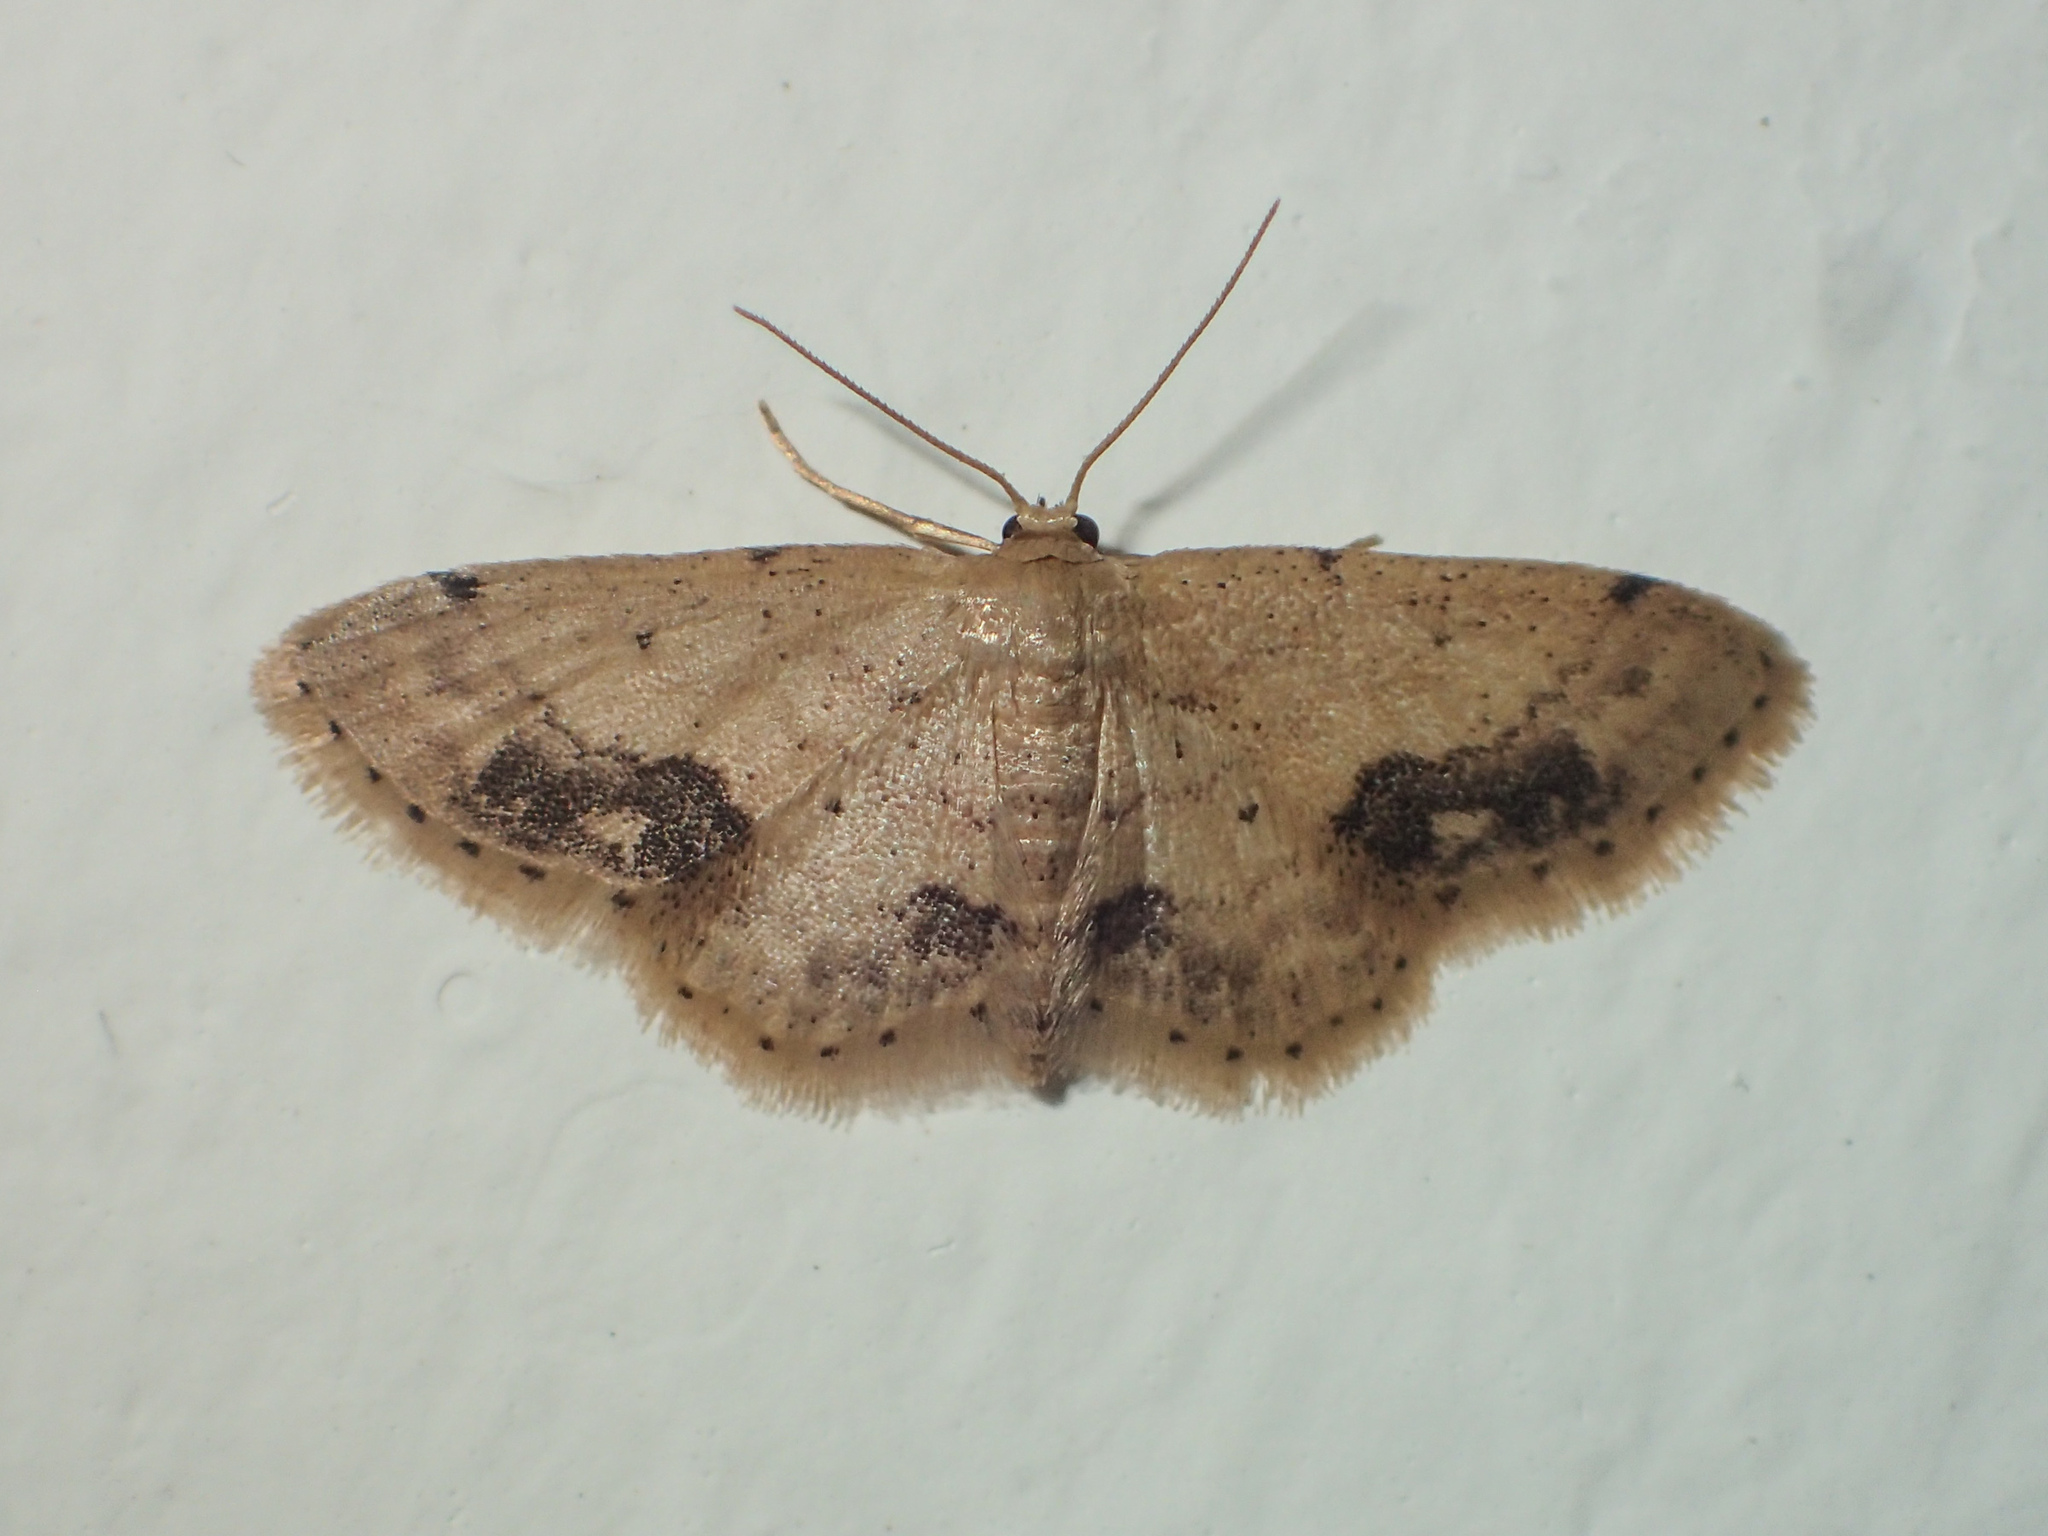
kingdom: Animalia
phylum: Arthropoda
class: Insecta
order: Lepidoptera
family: Geometridae
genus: Idaea
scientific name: Idaea chotaria
